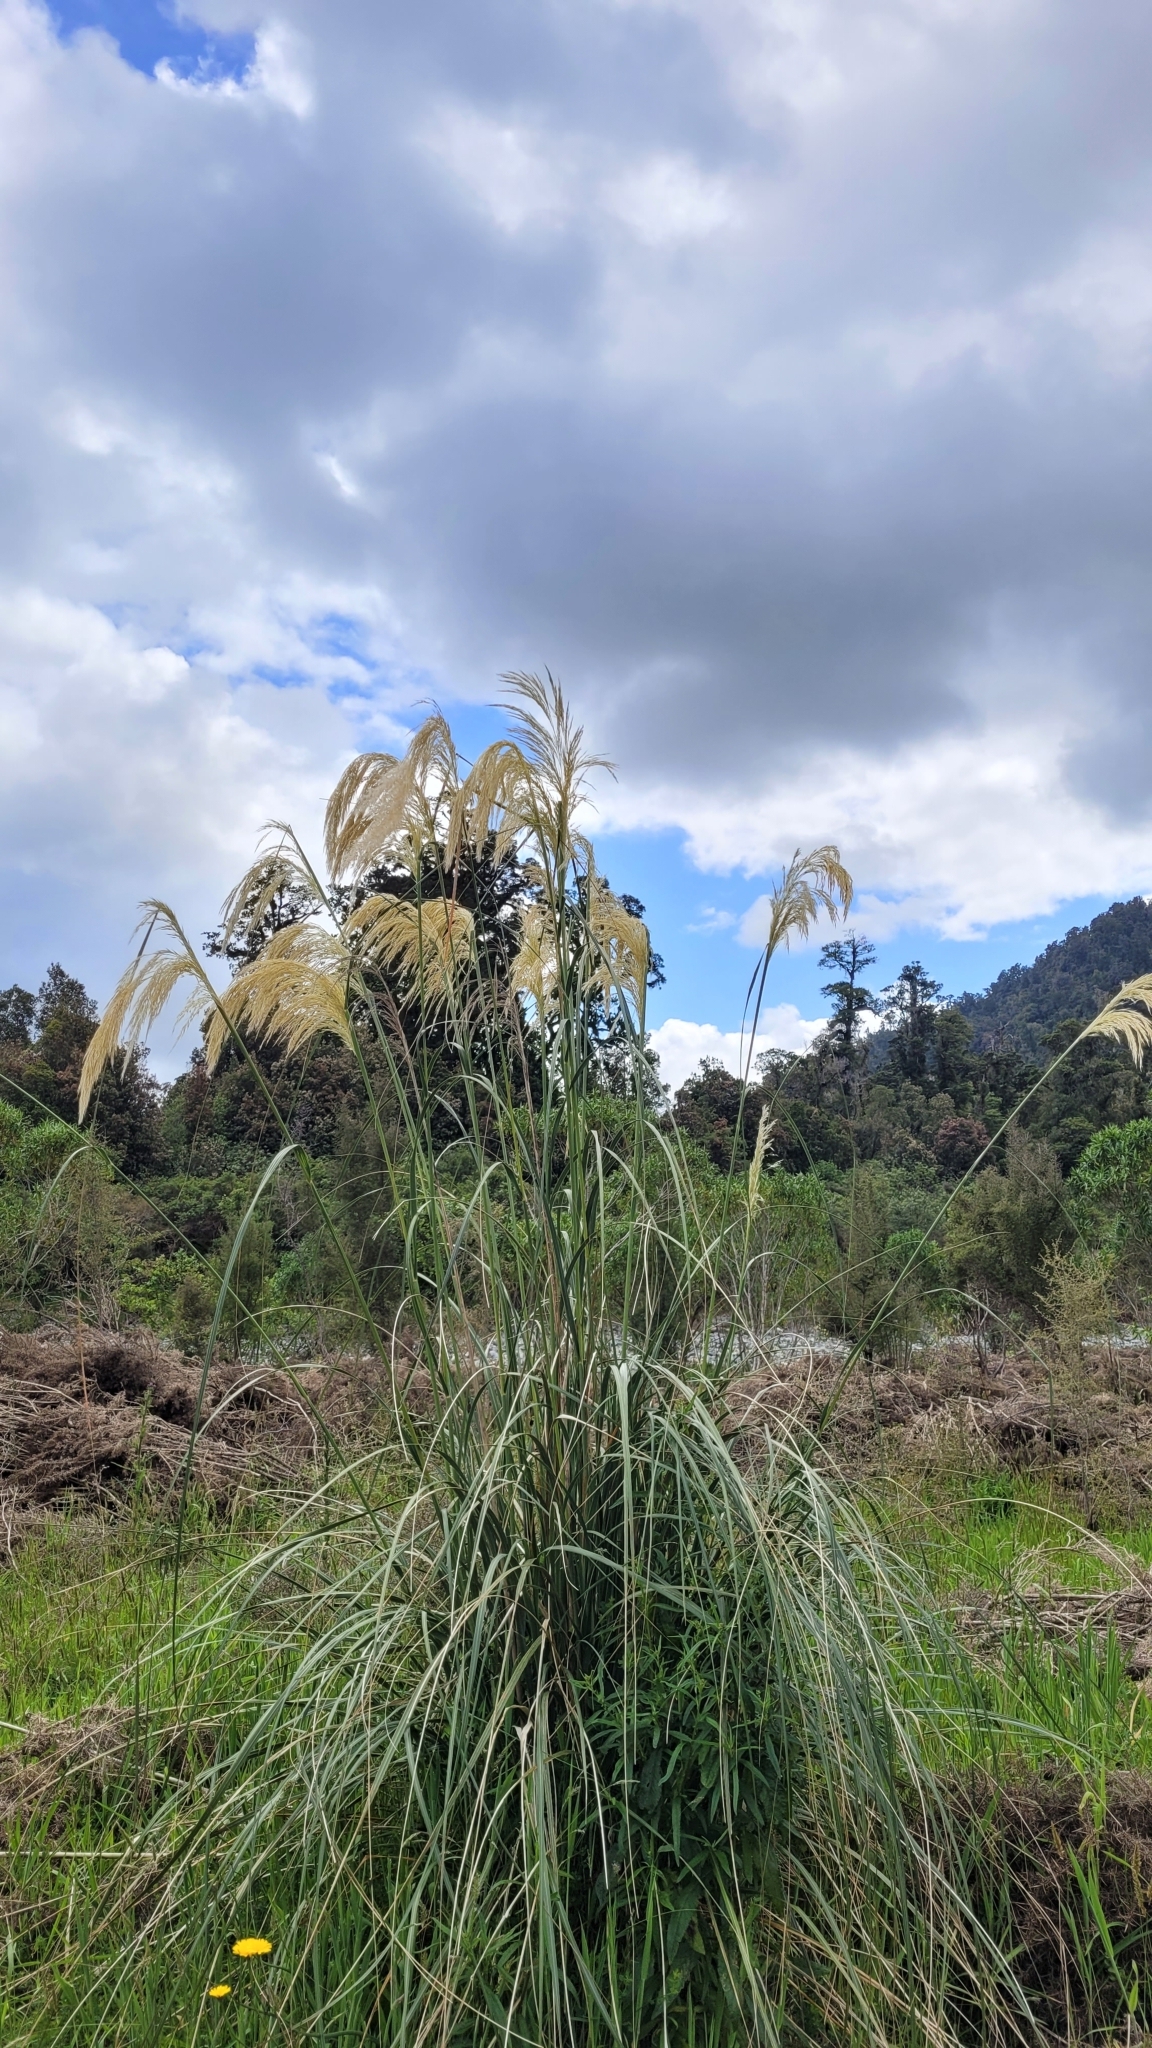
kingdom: Plantae
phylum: Tracheophyta
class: Liliopsida
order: Poales
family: Poaceae
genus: Austroderia
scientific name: Austroderia richardii
